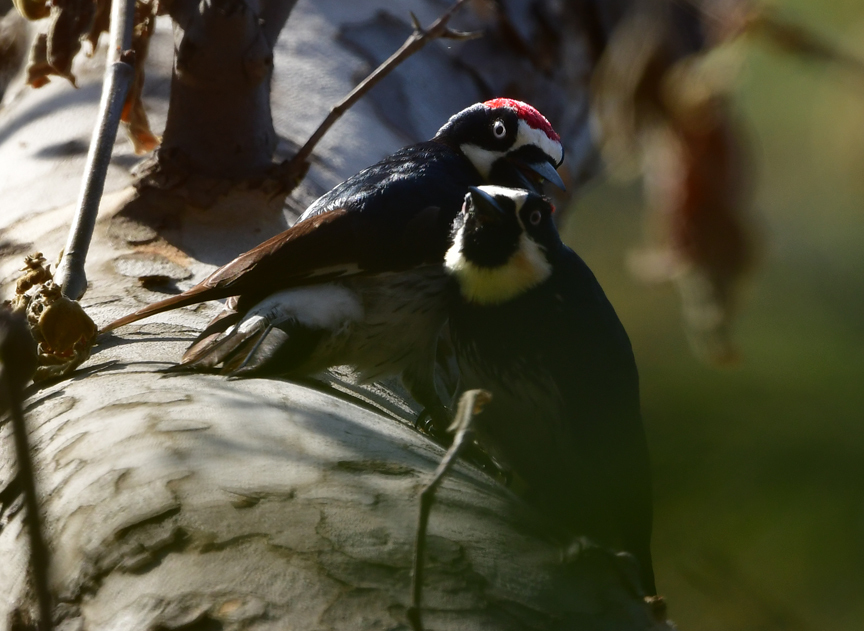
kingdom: Animalia
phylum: Chordata
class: Aves
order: Piciformes
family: Picidae
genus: Melanerpes
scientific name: Melanerpes formicivorus
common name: Acorn woodpecker
